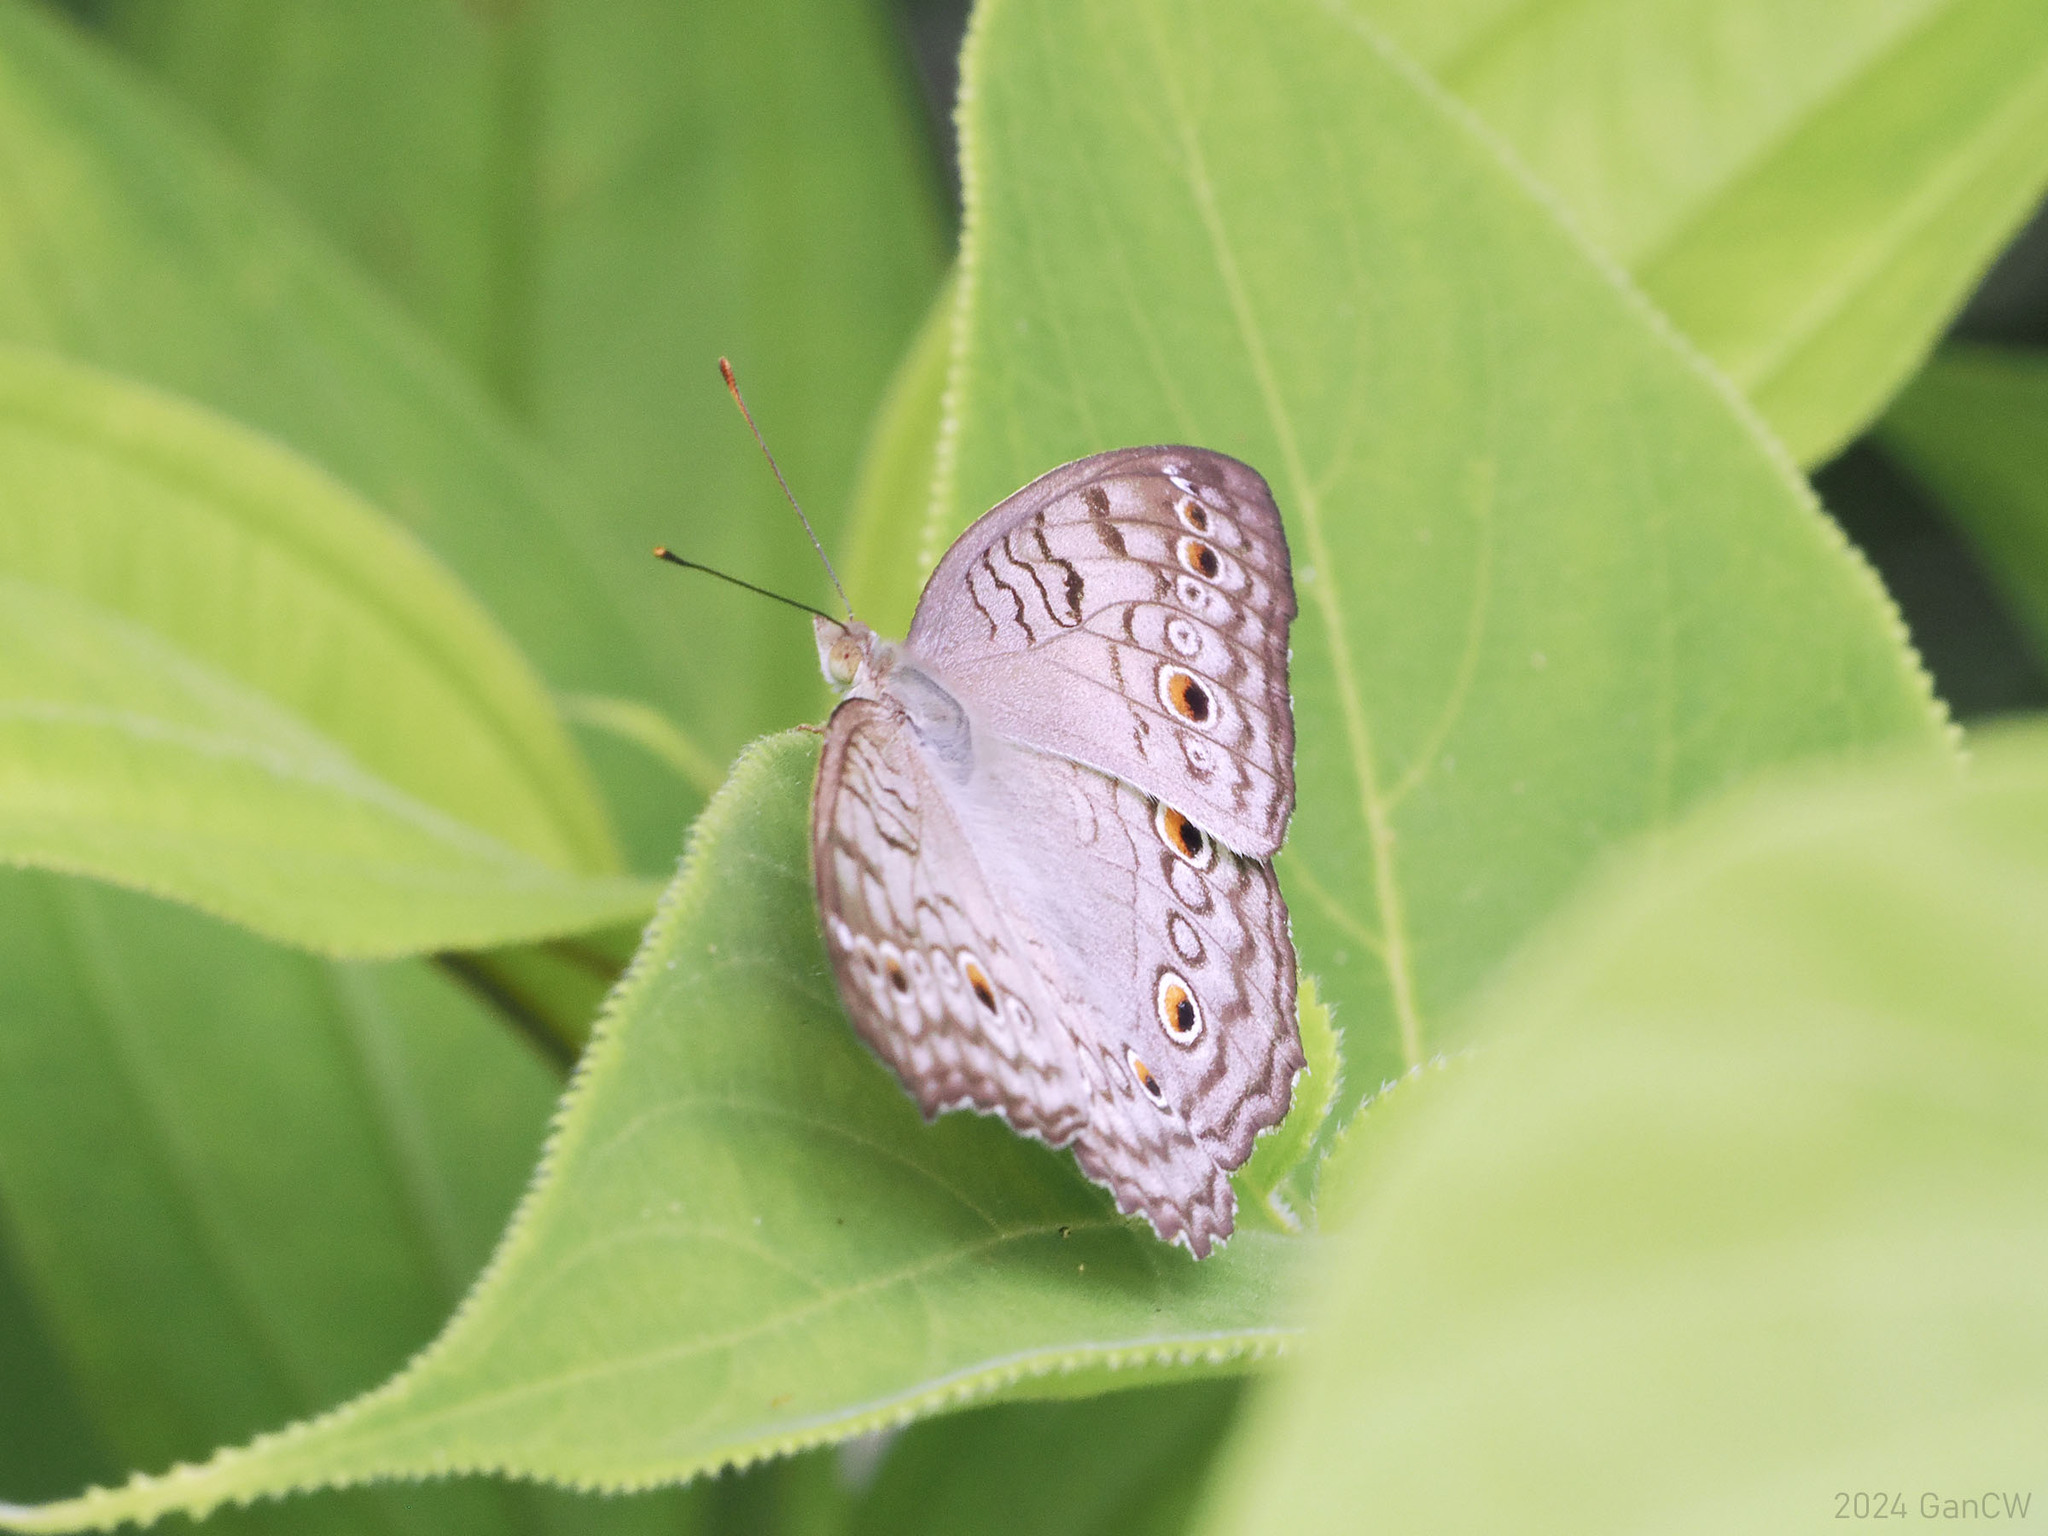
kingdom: Animalia
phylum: Arthropoda
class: Insecta
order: Lepidoptera
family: Nymphalidae
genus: Junonia
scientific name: Junonia atlites
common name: Grey pansy
